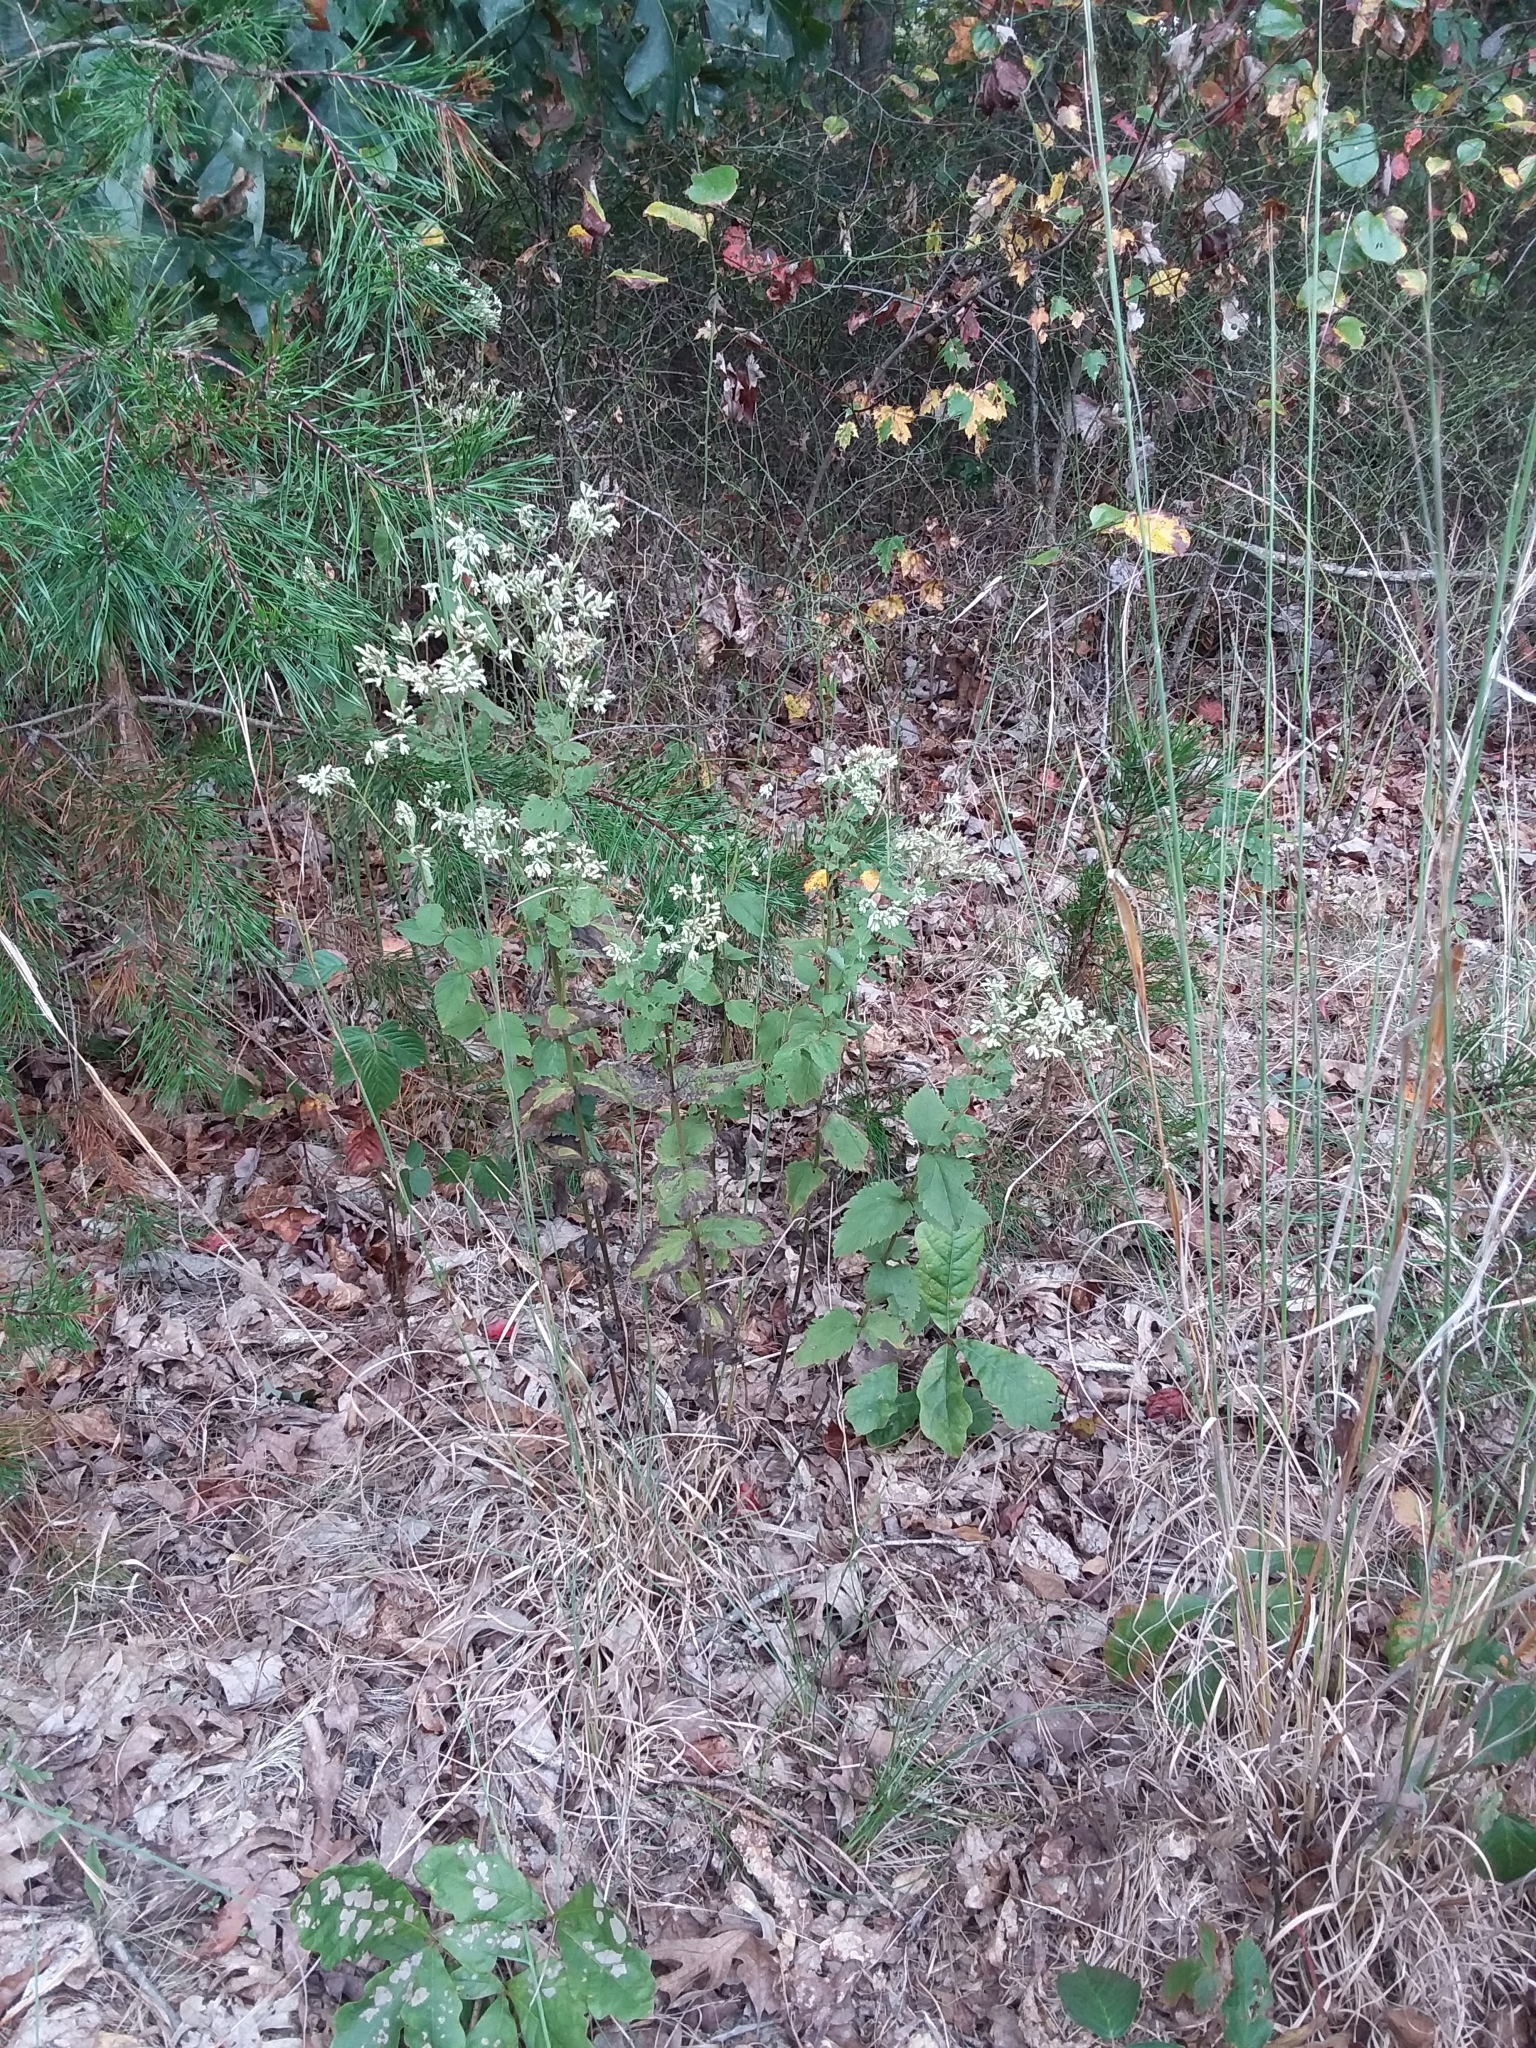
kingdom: Plantae
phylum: Tracheophyta
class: Magnoliopsida
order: Asterales
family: Asteraceae
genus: Eupatorium
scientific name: Eupatorium rotundifolium
